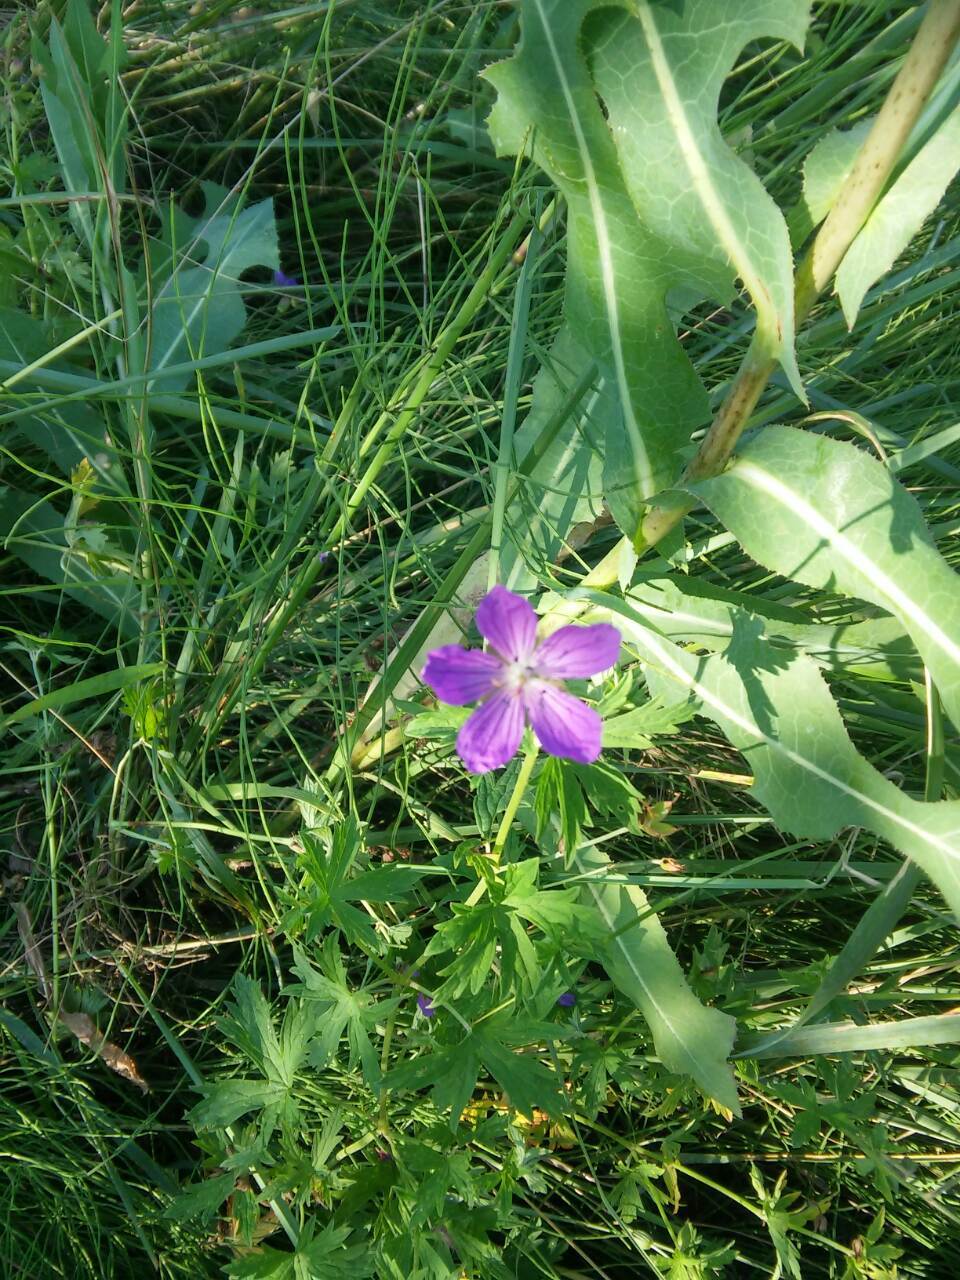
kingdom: Plantae
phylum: Tracheophyta
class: Magnoliopsida
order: Geraniales
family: Geraniaceae
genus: Geranium
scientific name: Geranium collinum
